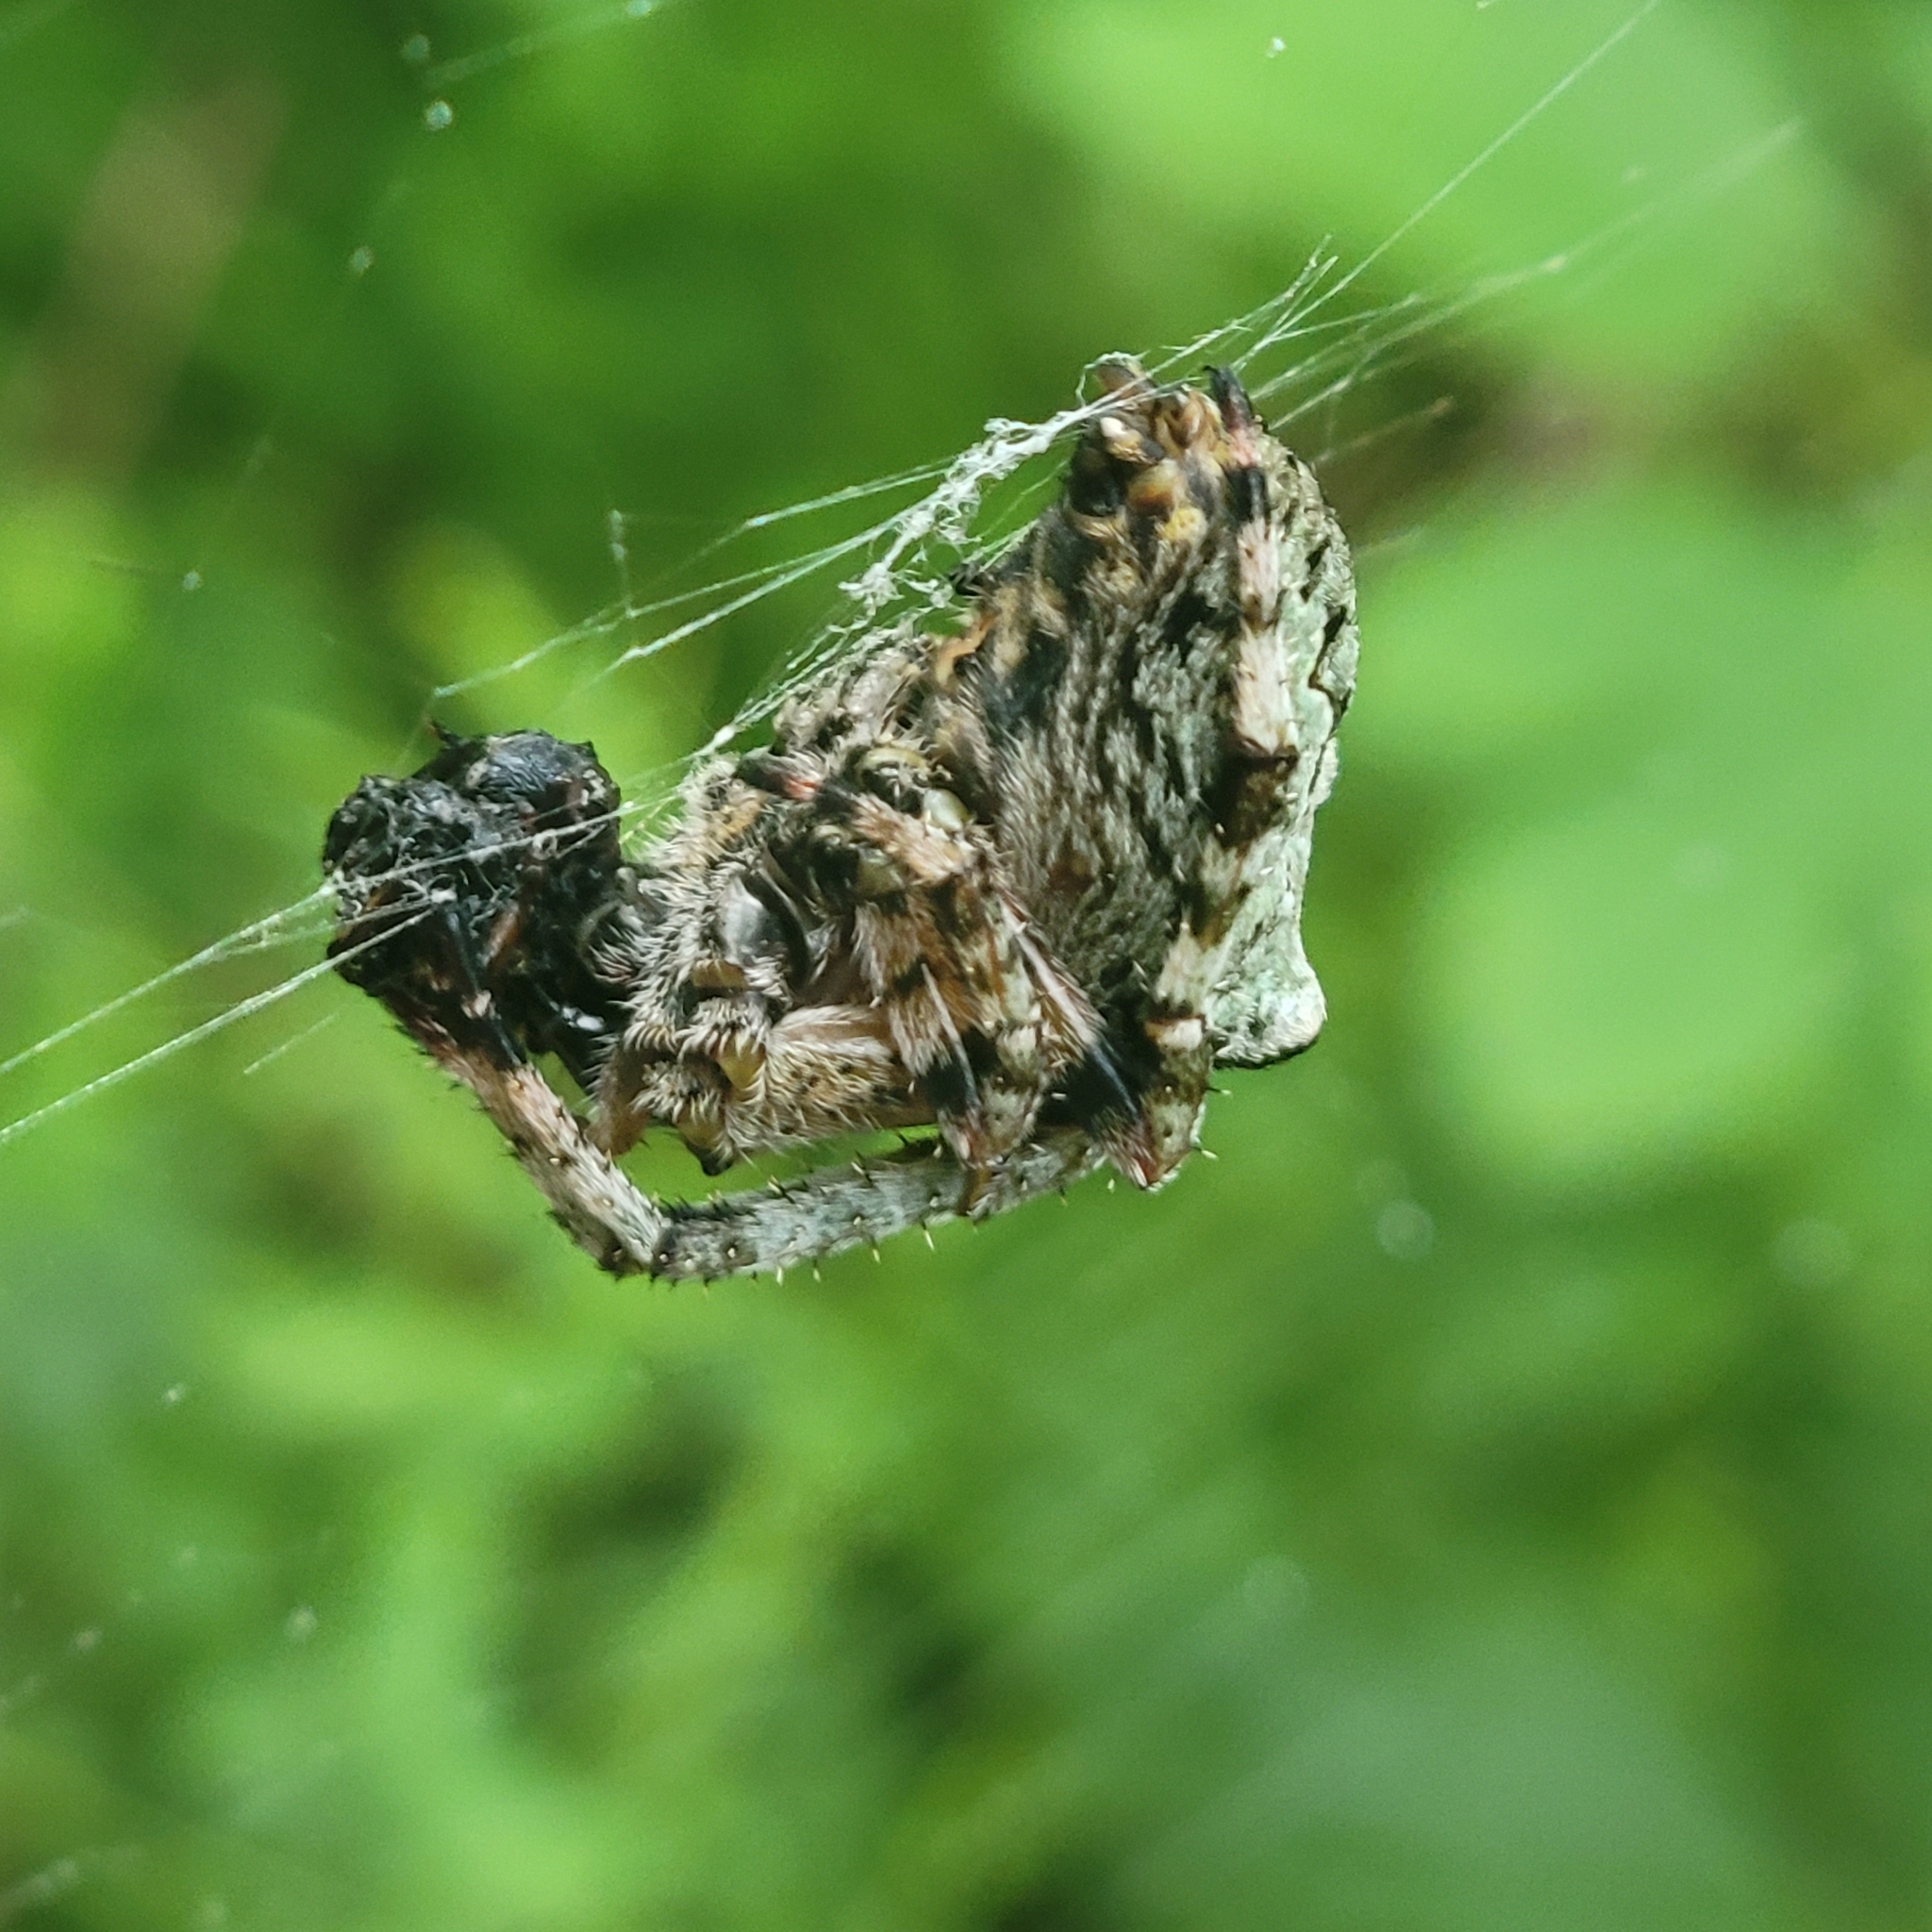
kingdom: Animalia
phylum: Arthropoda
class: Arachnida
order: Araneae
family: Araneidae
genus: Araneus
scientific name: Araneus bicentenarius
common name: Giant lichen orbweaver
